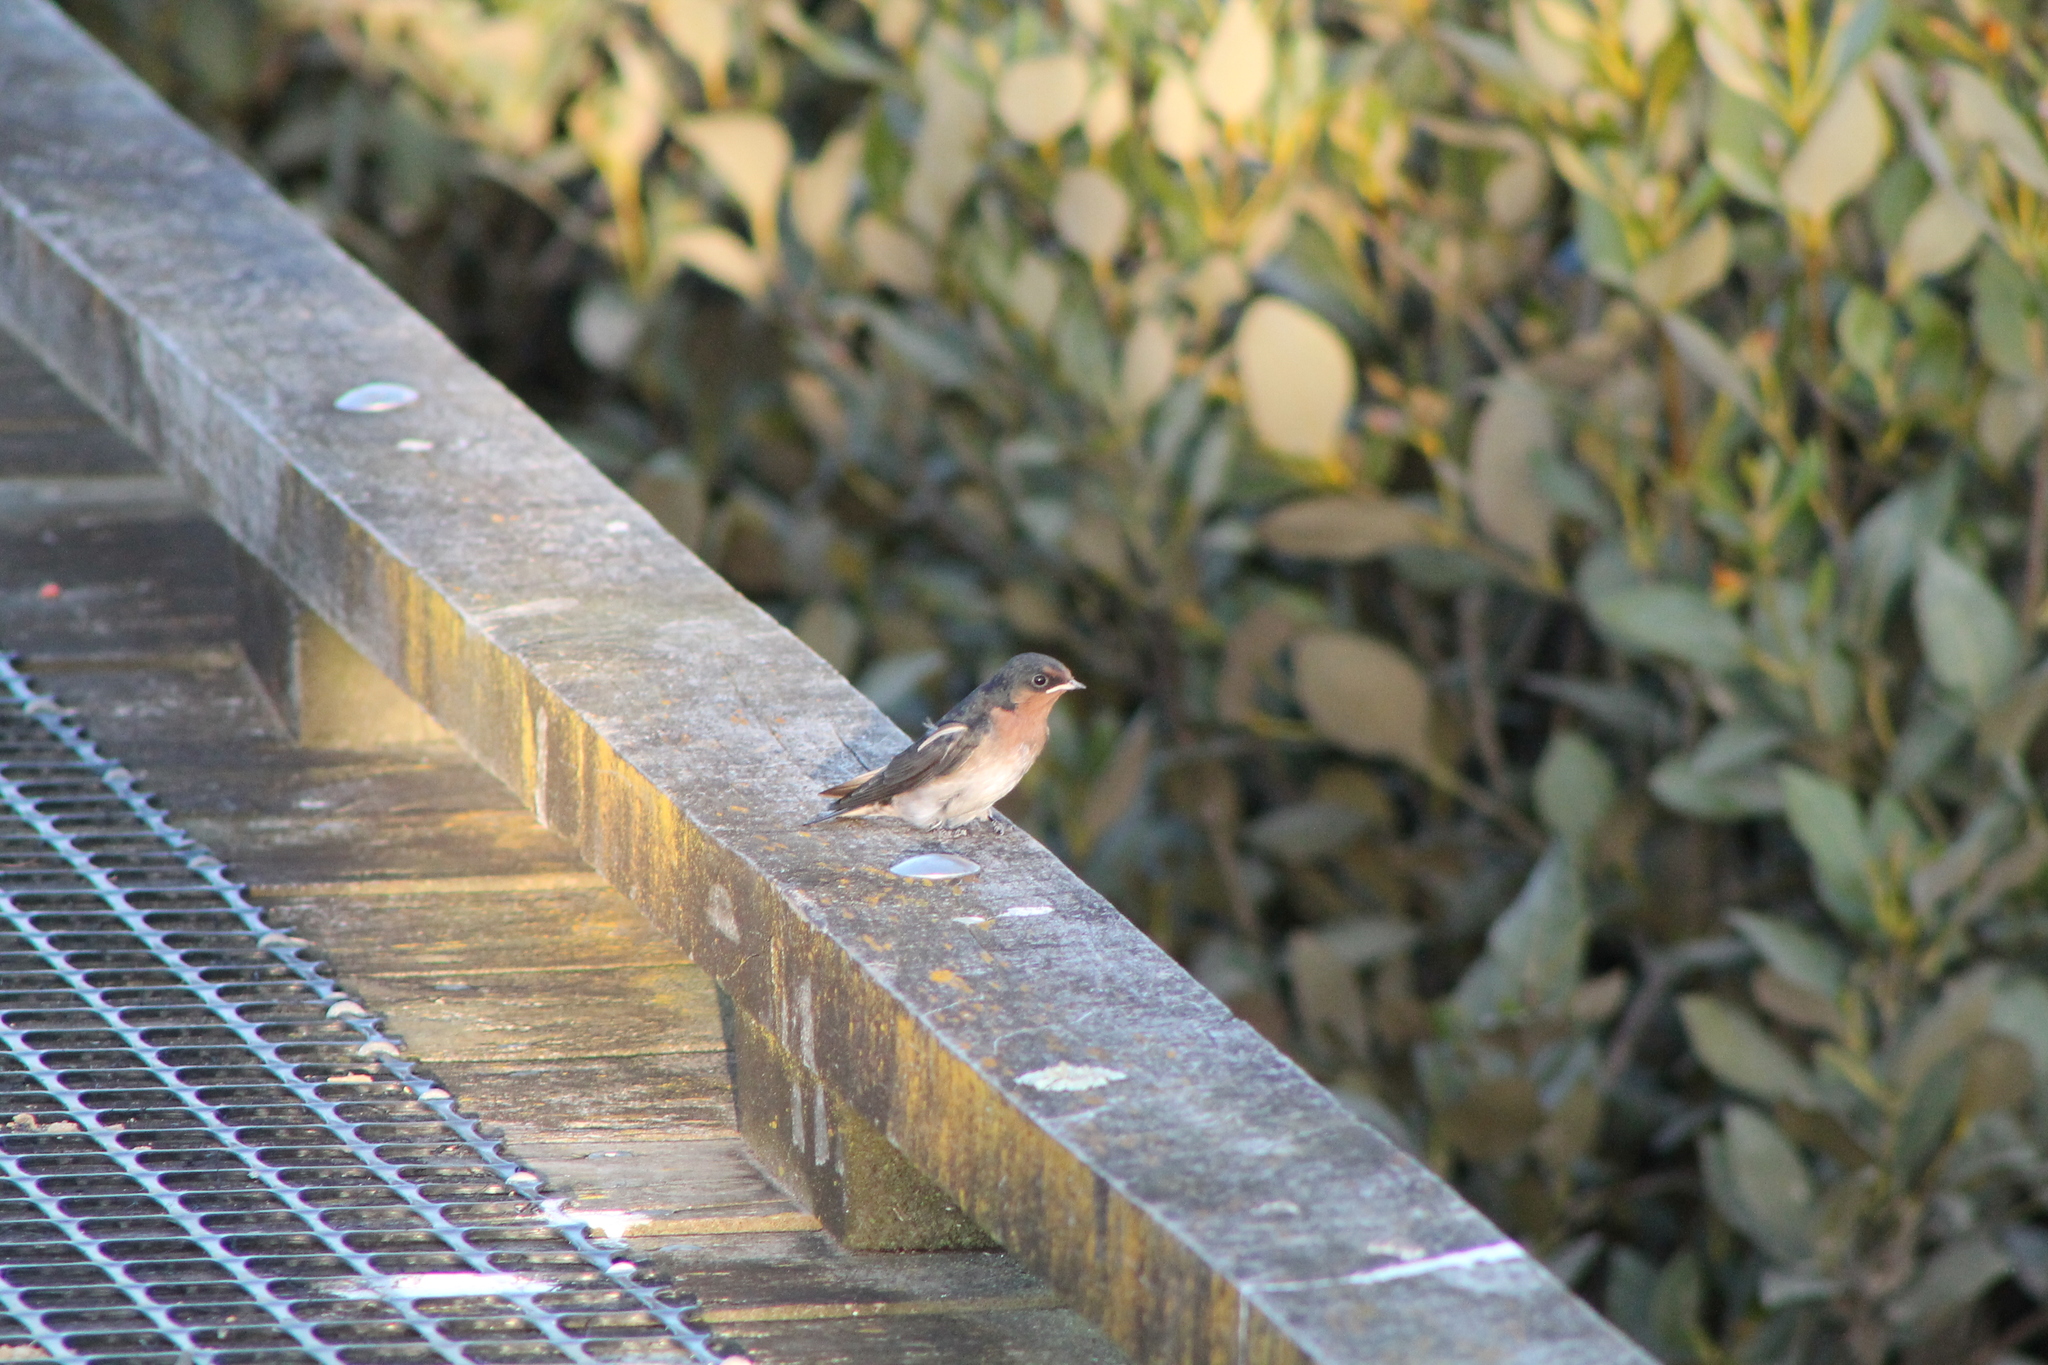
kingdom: Animalia
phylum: Chordata
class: Aves
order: Passeriformes
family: Hirundinidae
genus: Hirundo
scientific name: Hirundo neoxena
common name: Welcome swallow
